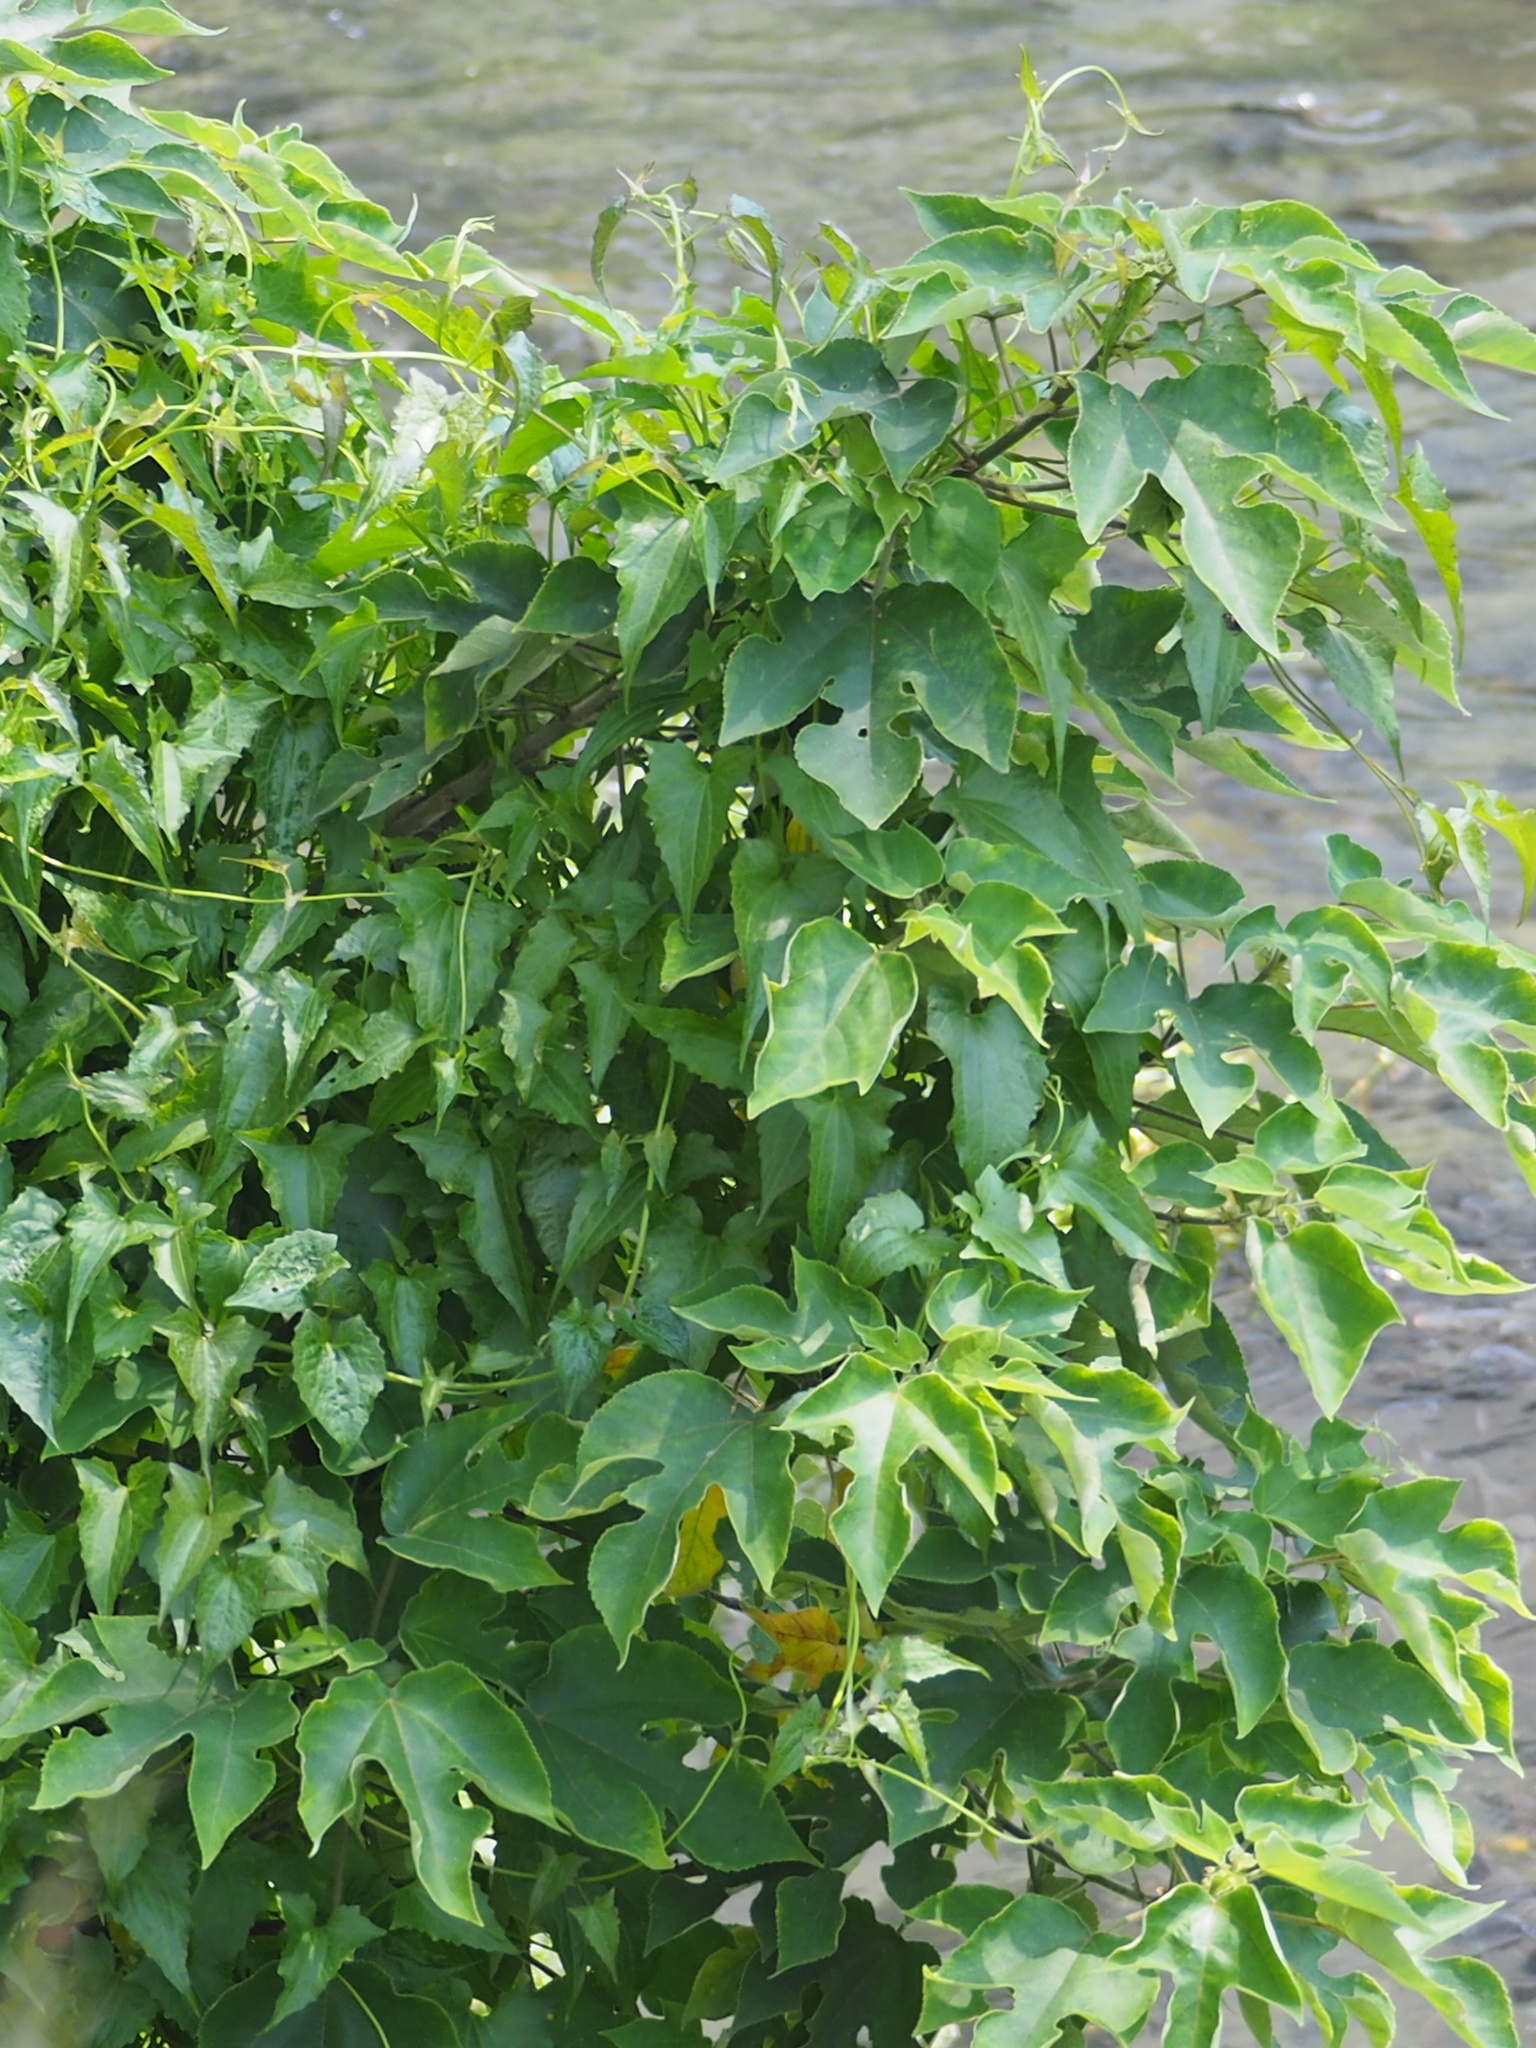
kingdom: Plantae
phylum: Tracheophyta
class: Magnoliopsida
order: Rosales
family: Moraceae
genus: Broussonetia
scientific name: Broussonetia papyrifera
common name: Paper mulberry
